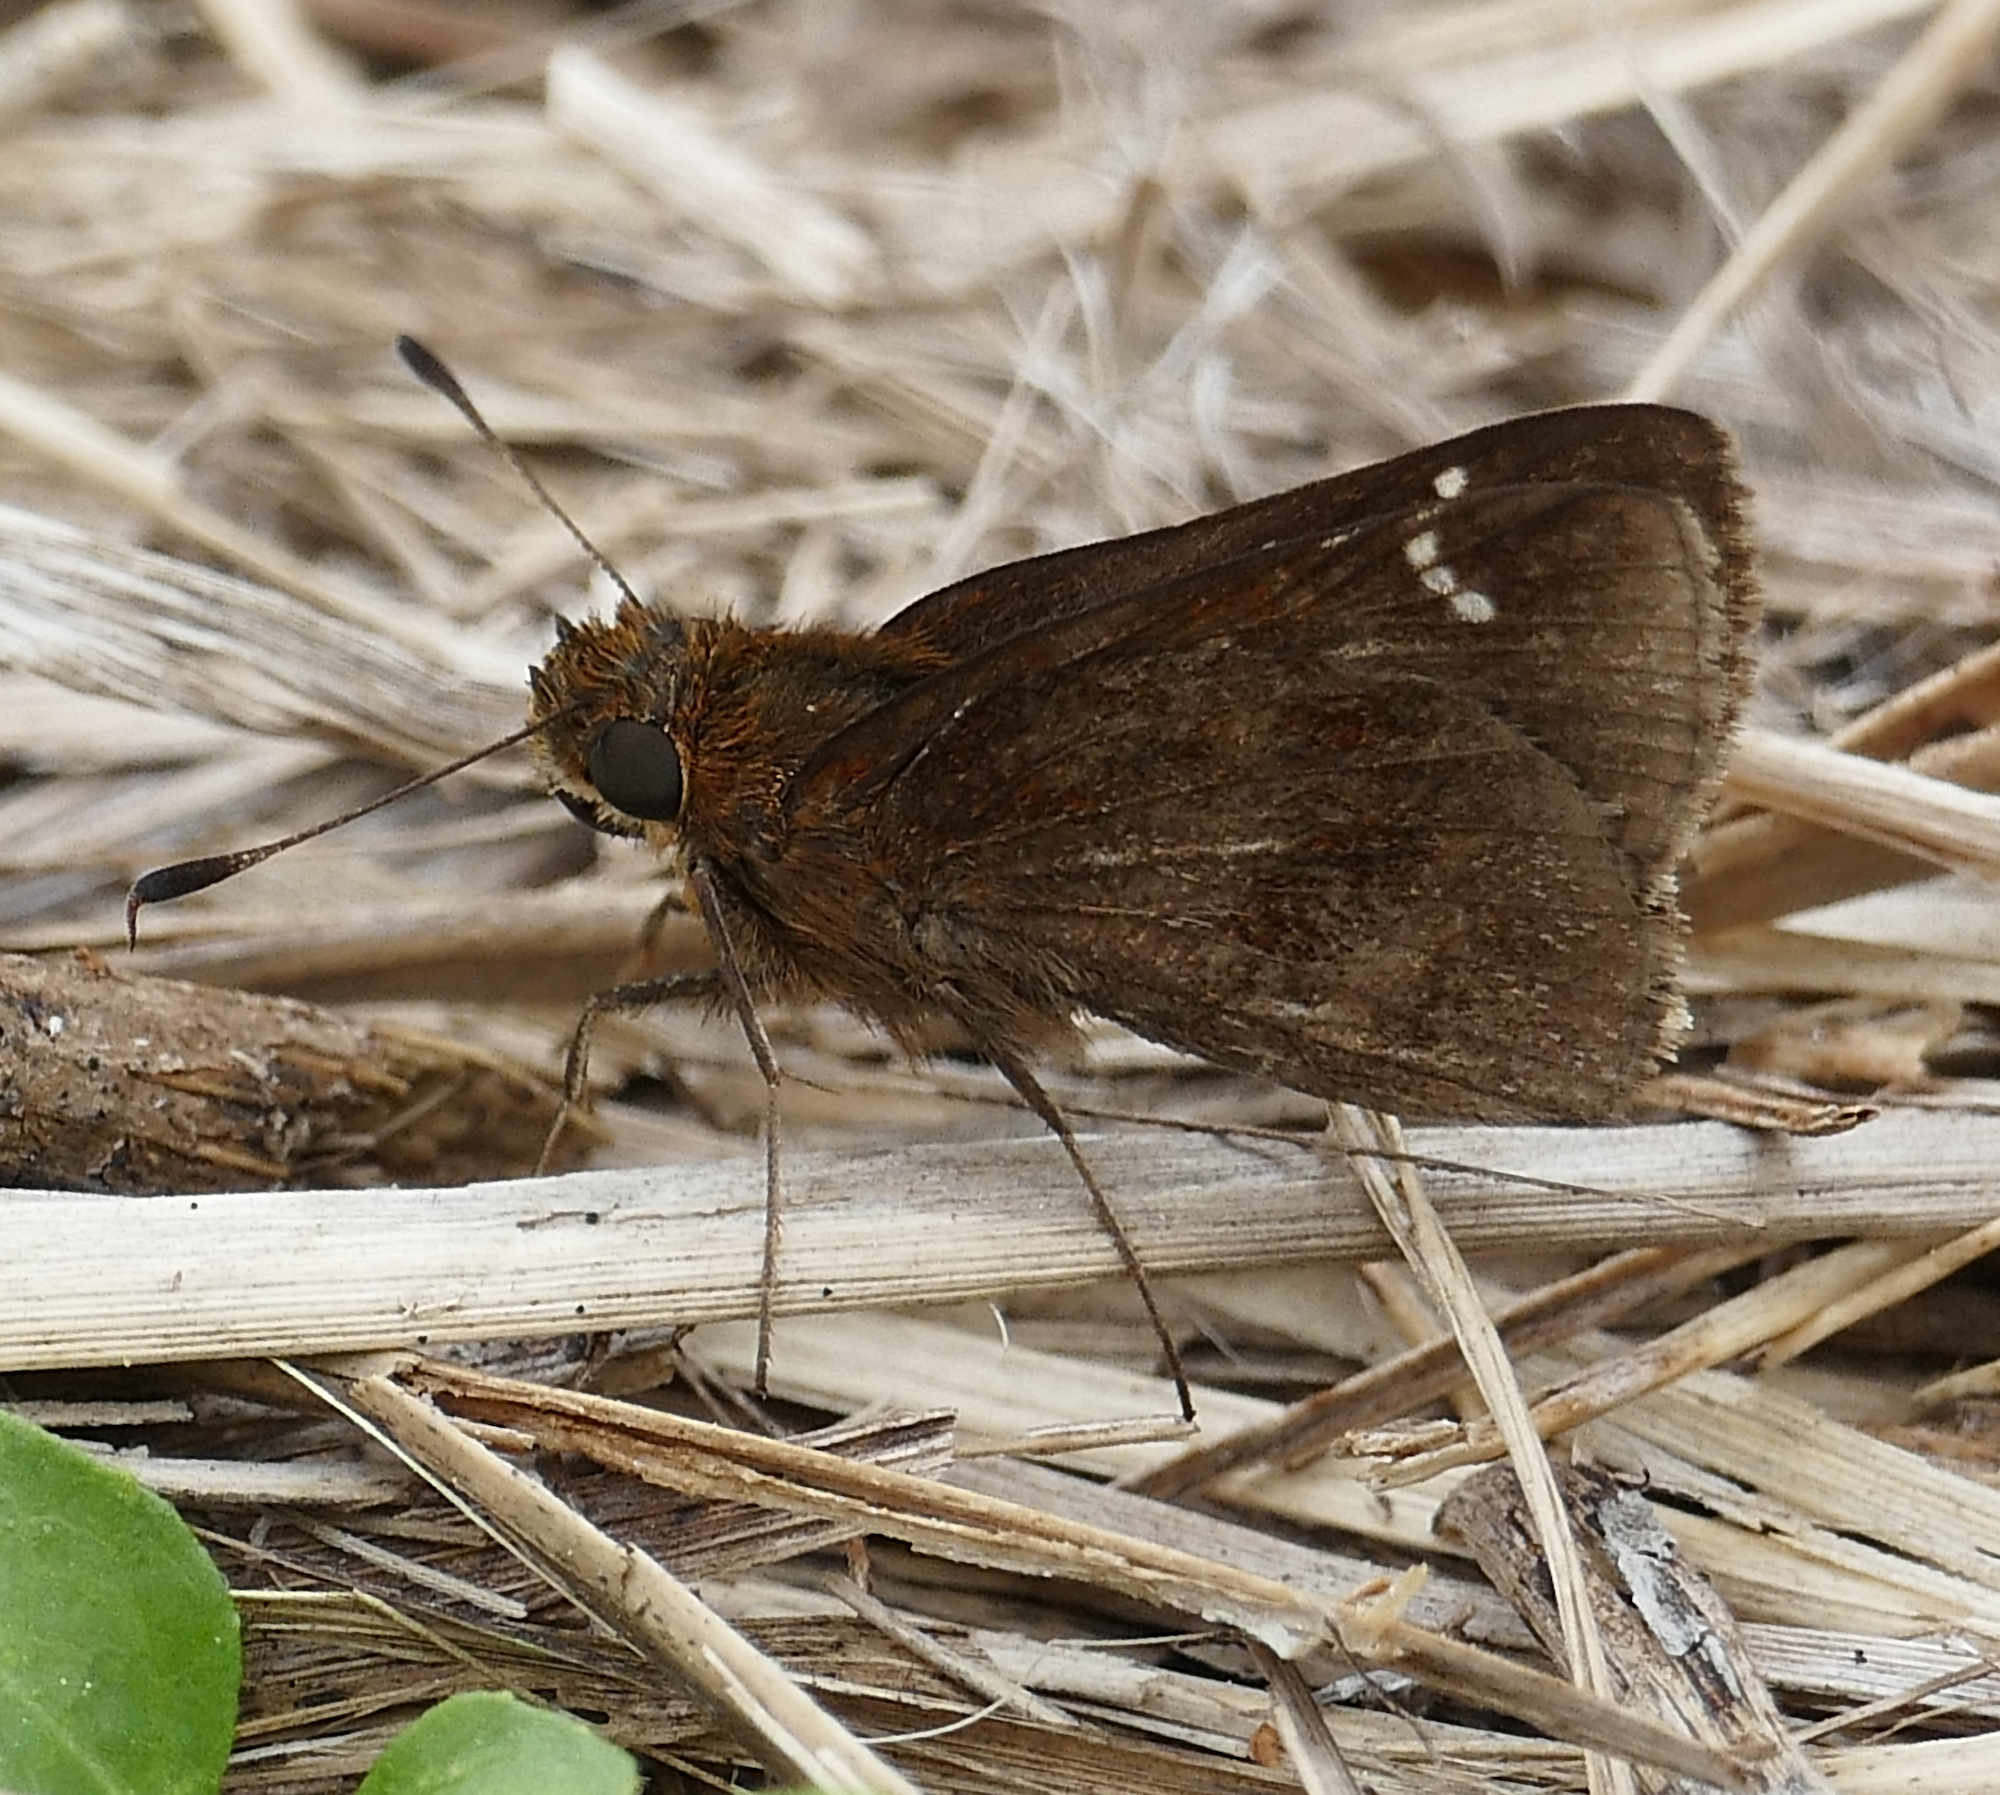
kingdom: Animalia
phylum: Arthropoda
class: Insecta
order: Lepidoptera
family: Hesperiidae
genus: Lerema
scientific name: Lerema accius
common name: Clouded skipper
